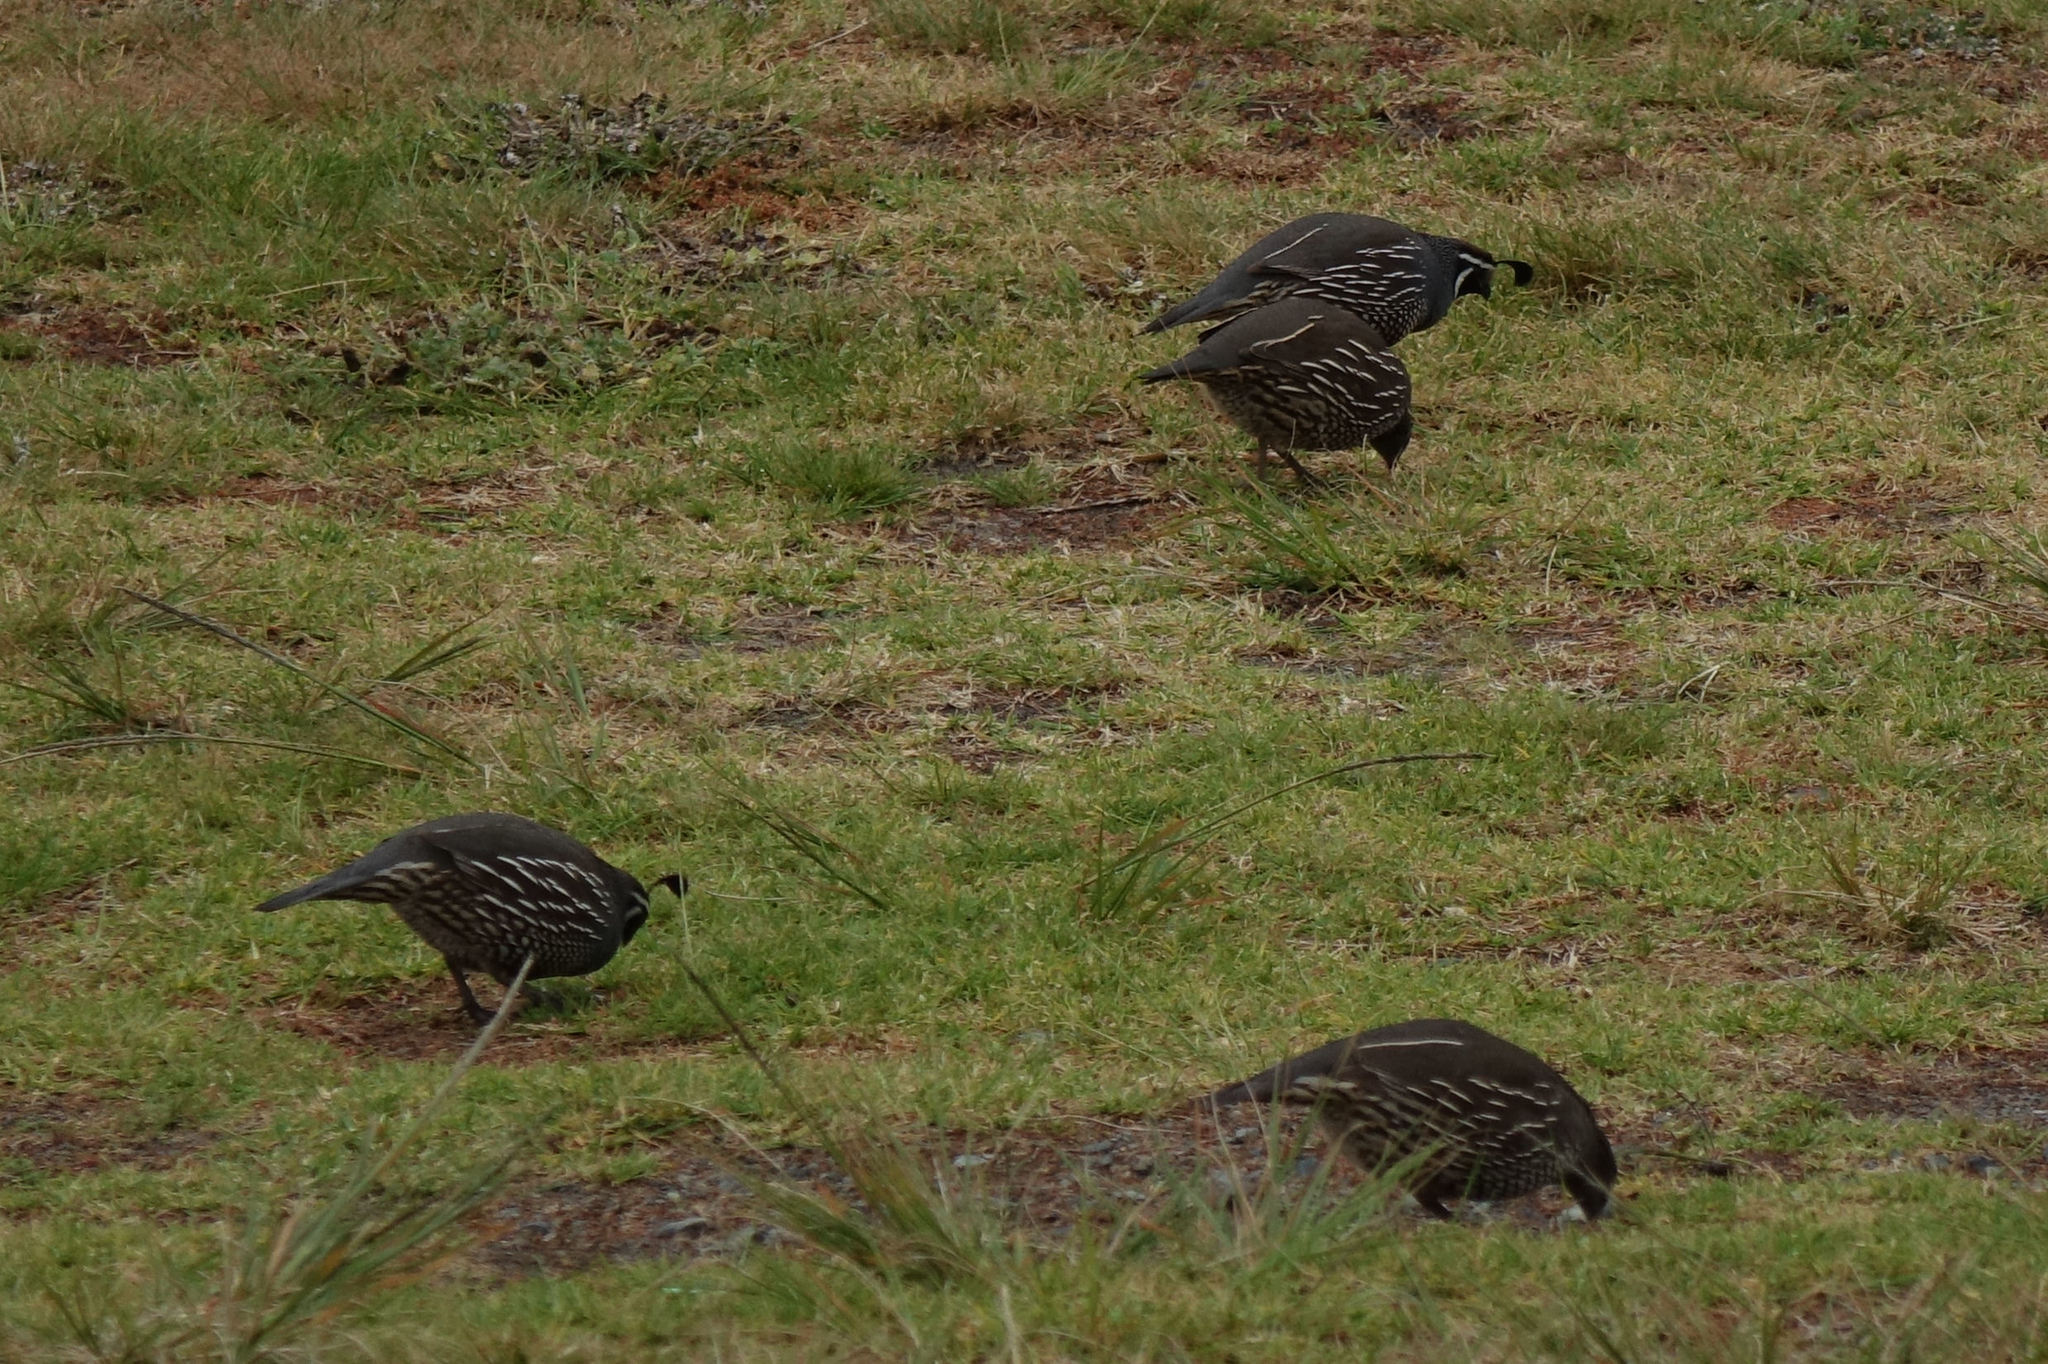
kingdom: Animalia
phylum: Chordata
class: Aves
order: Galliformes
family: Odontophoridae
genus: Callipepla
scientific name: Callipepla californica
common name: California quail
